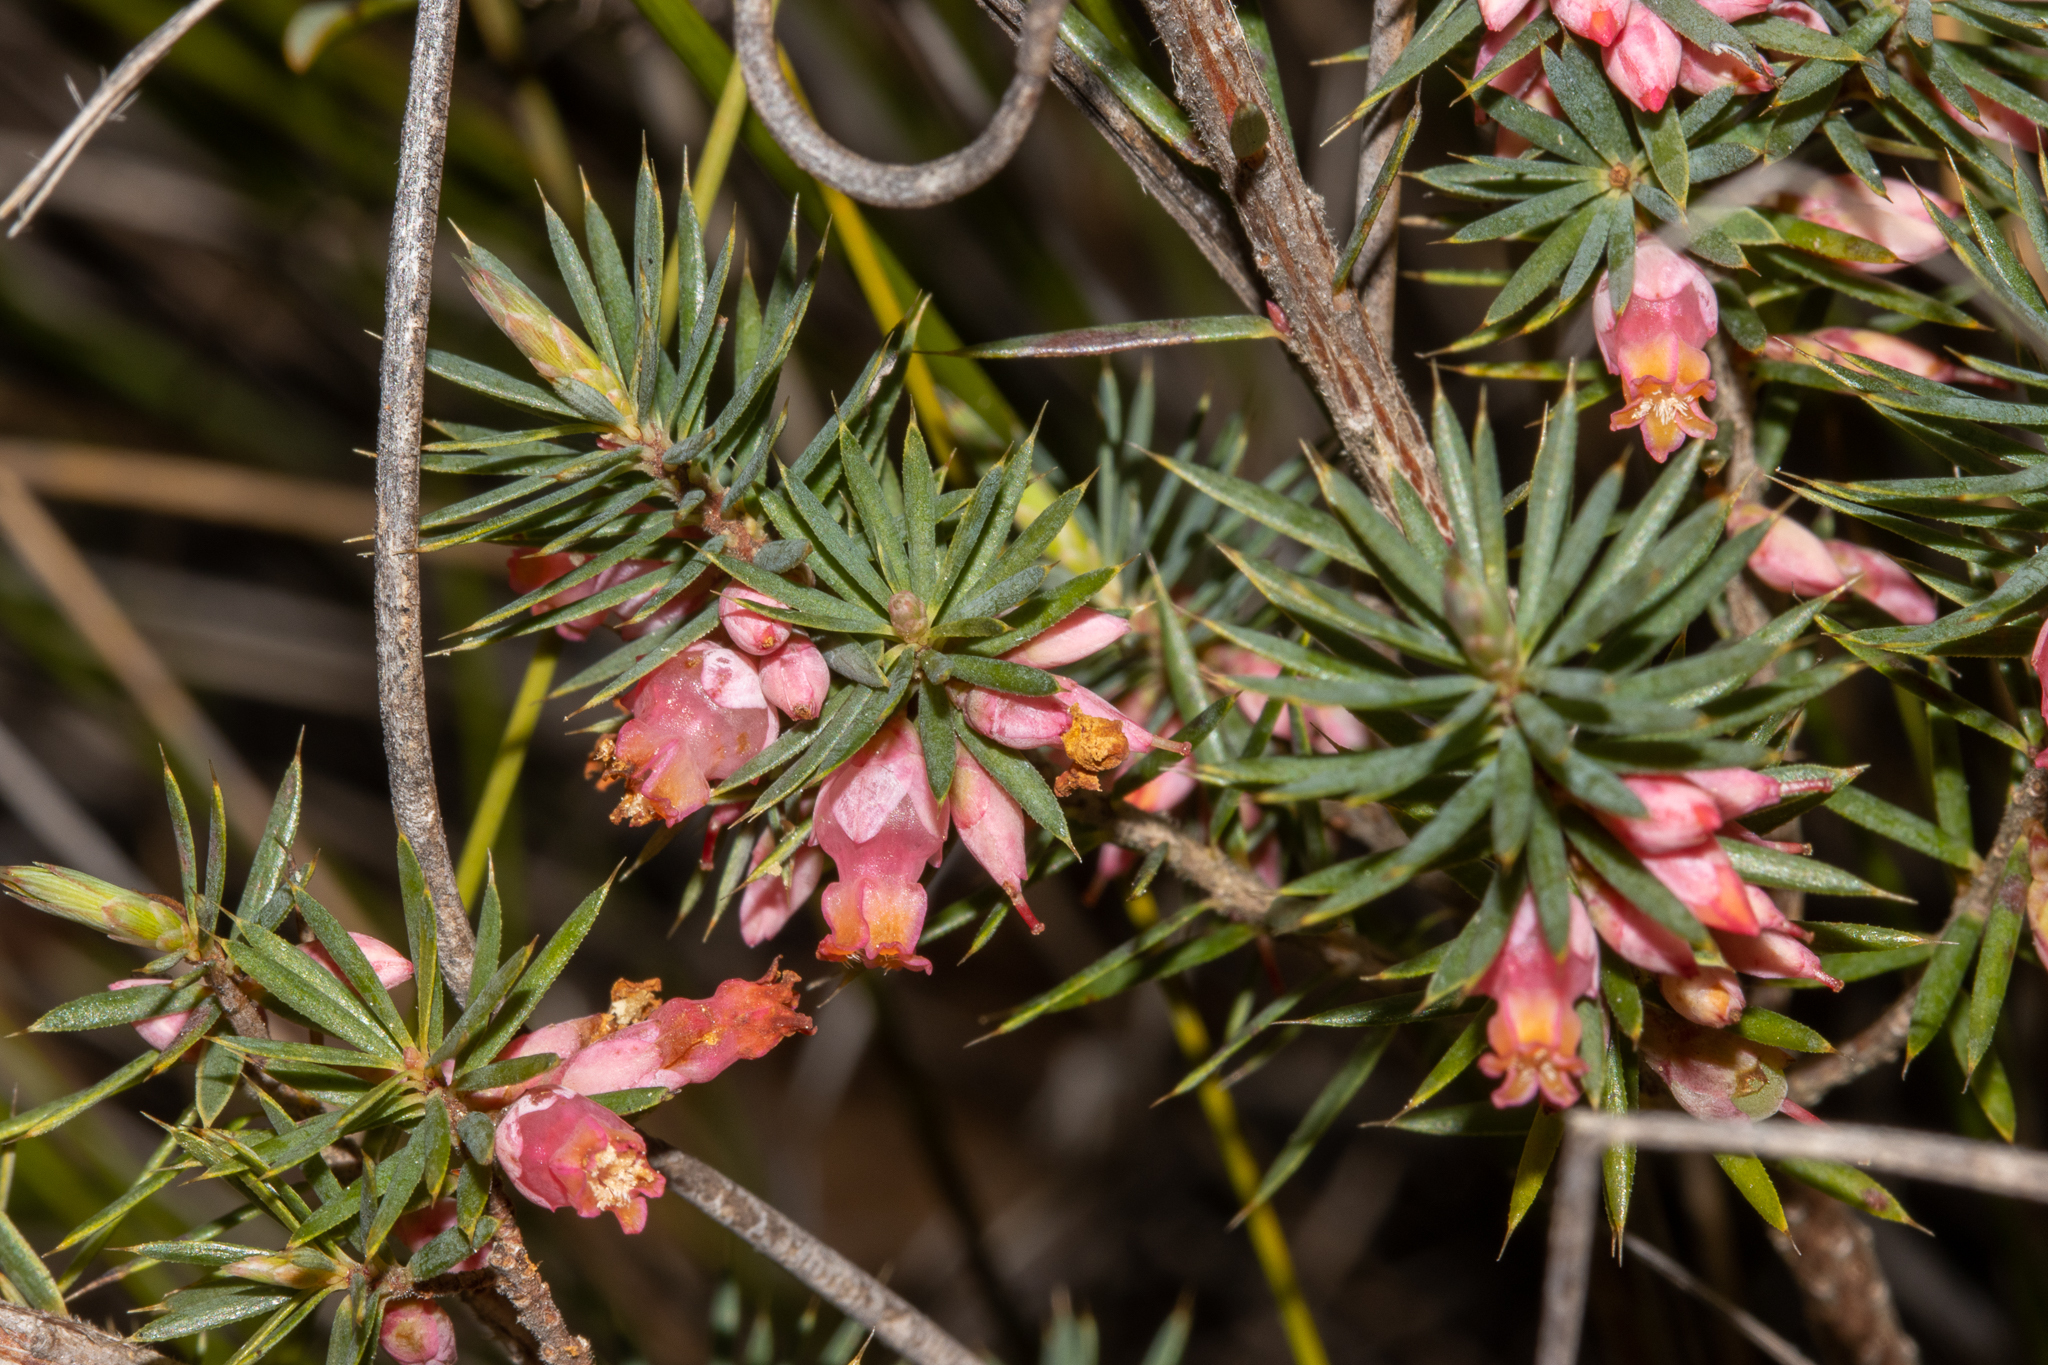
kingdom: Plantae
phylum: Tracheophyta
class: Magnoliopsida
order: Ericales
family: Ericaceae
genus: Brachyloma
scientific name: Brachyloma ericoides
